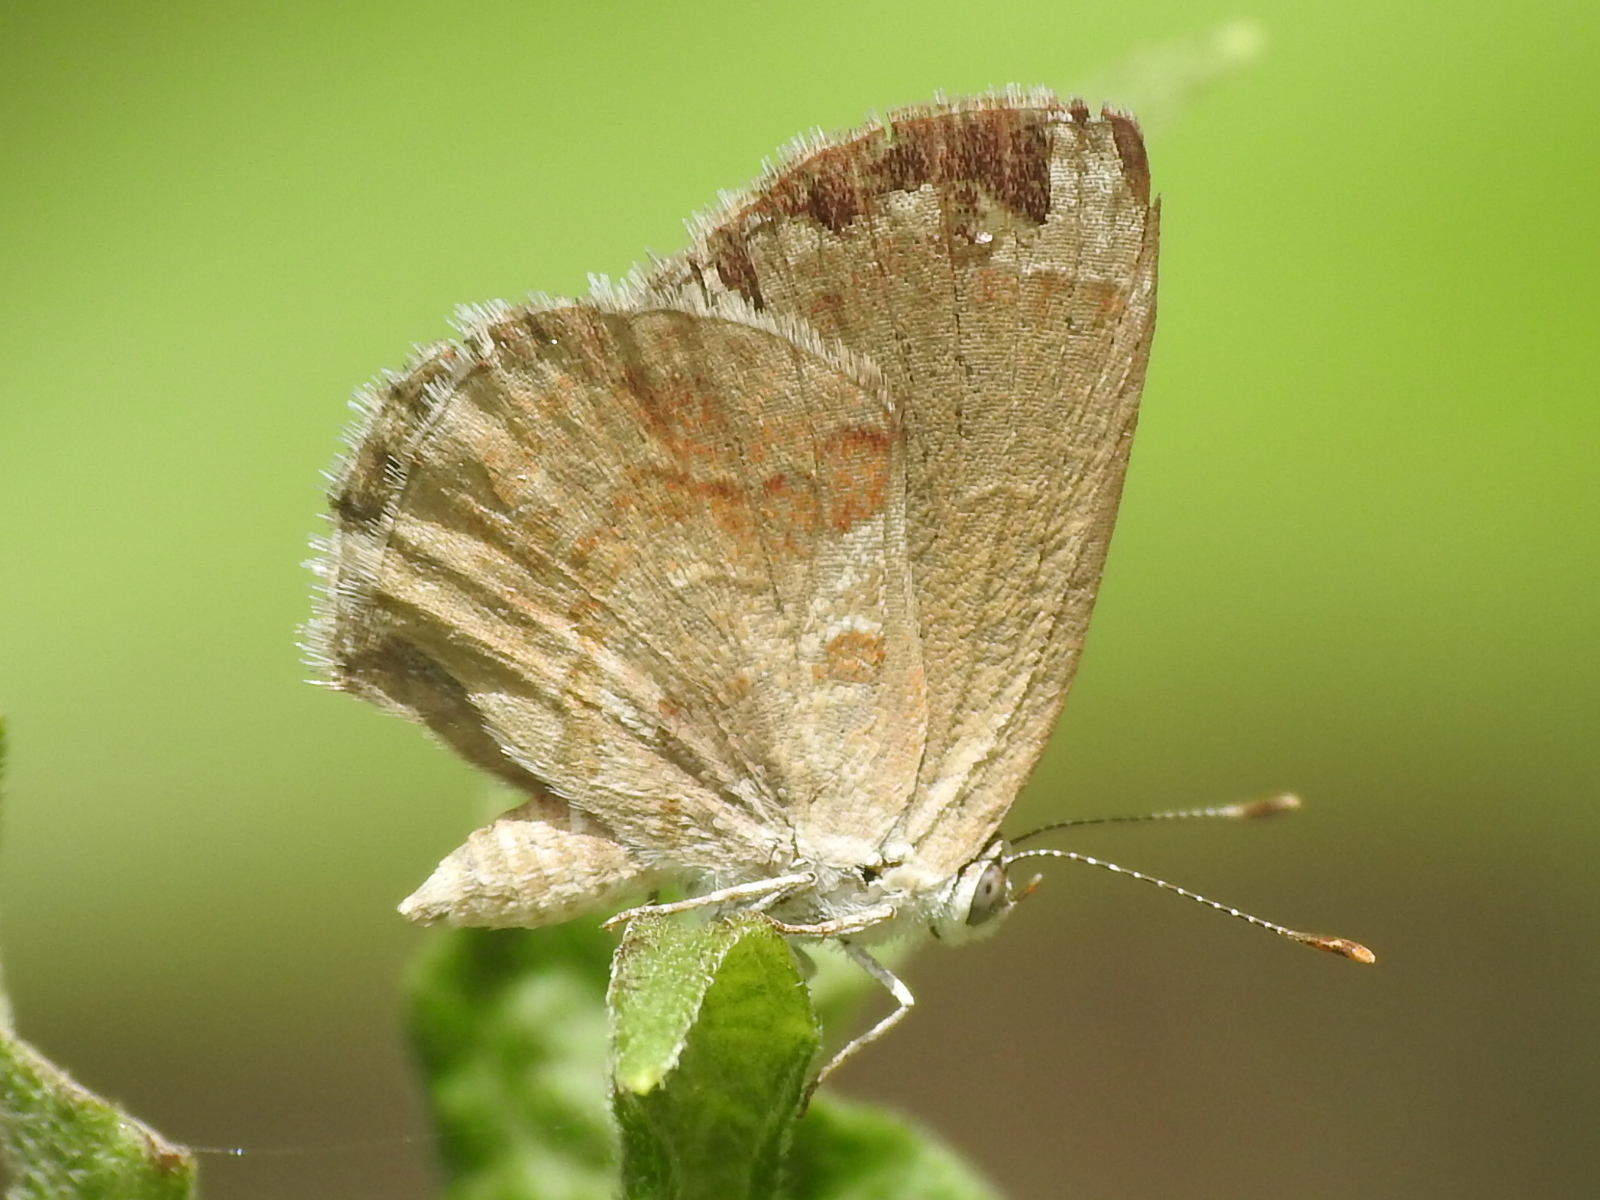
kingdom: Animalia
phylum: Arthropoda
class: Insecta
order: Lepidoptera
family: Lycaenidae
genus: Strymon
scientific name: Strymon bazochii
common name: Lantana scrub-hairstreak
